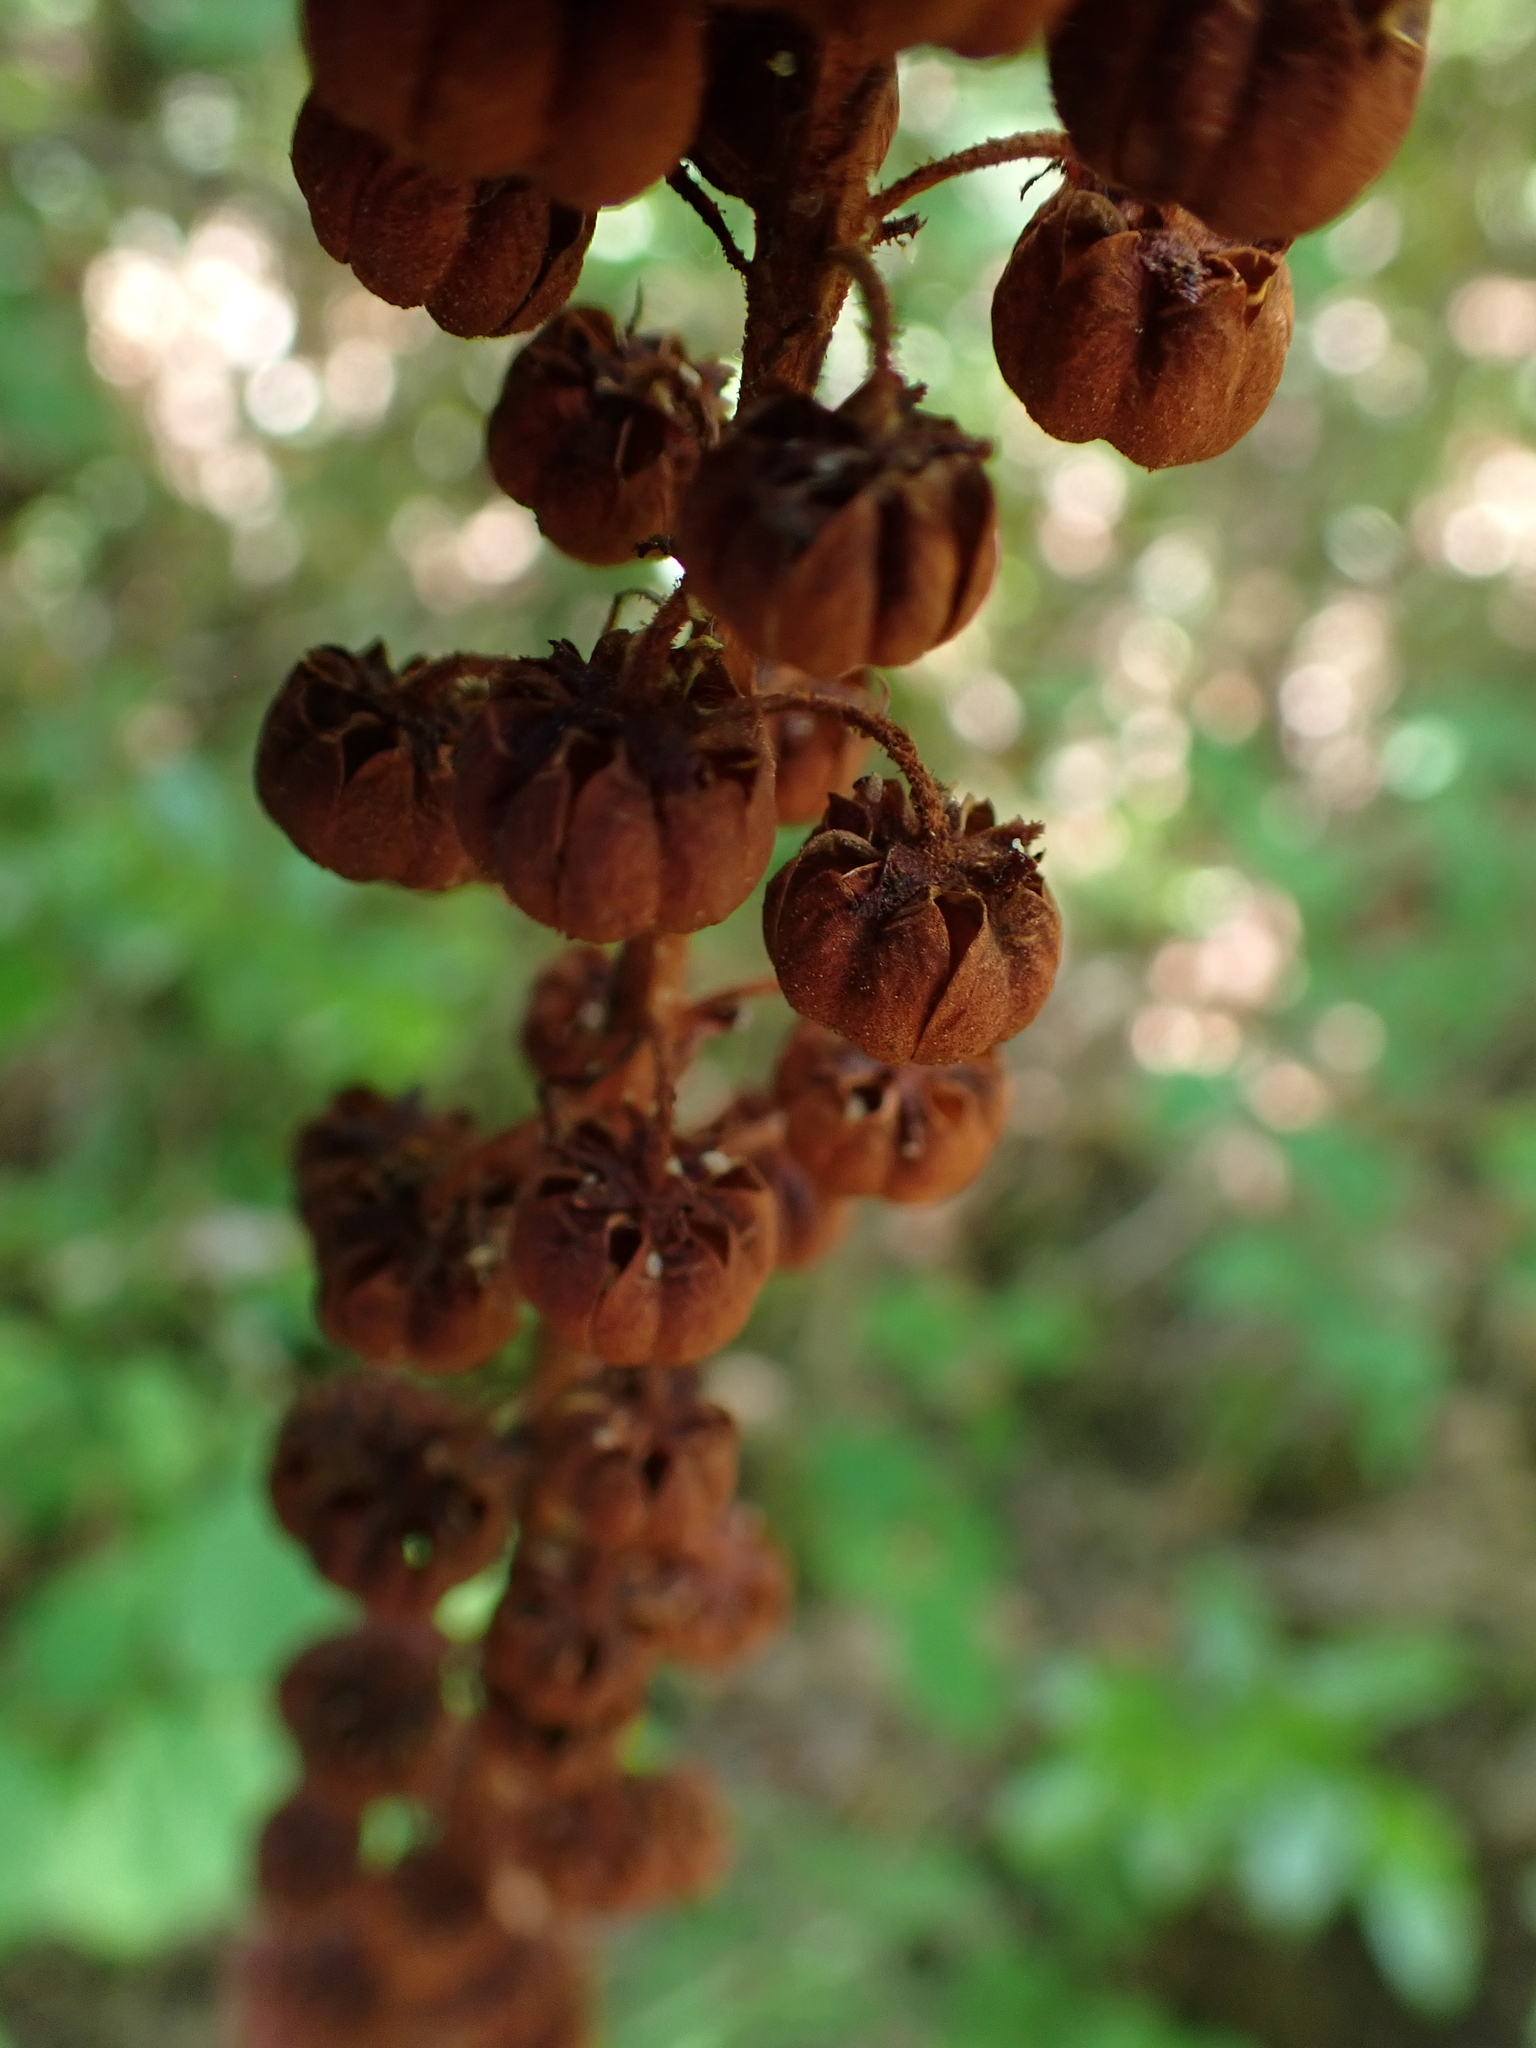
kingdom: Plantae
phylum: Tracheophyta
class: Magnoliopsida
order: Ericales
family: Ericaceae
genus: Pterospora
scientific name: Pterospora andromedea
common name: Giant bird's-nest
